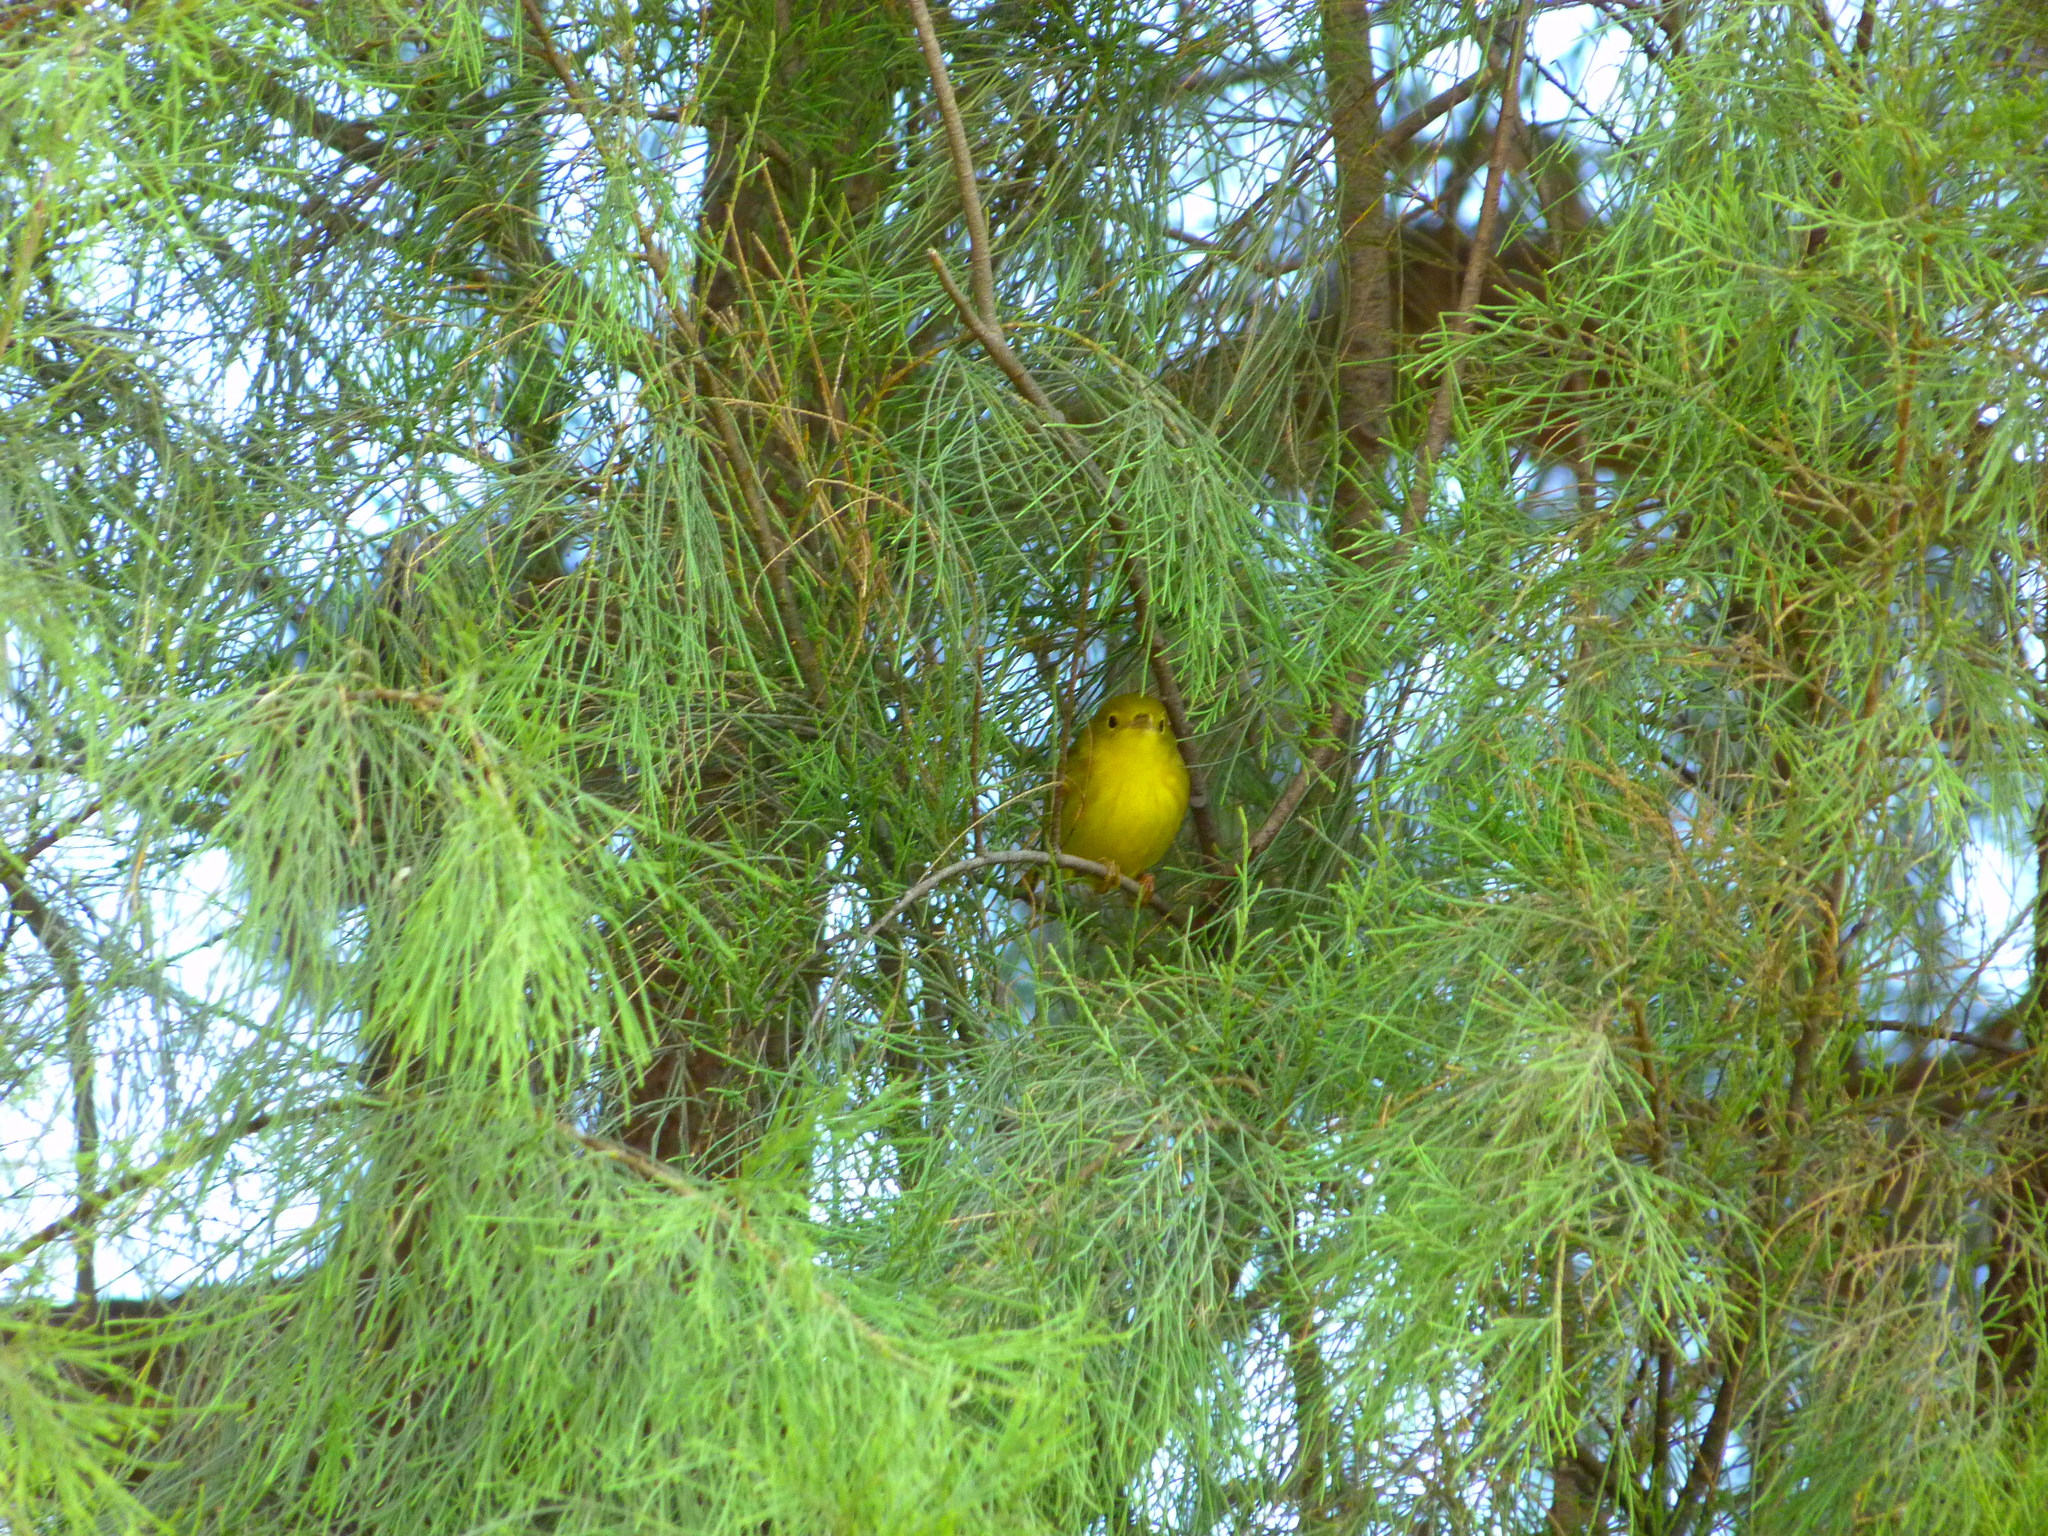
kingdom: Animalia
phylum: Chordata
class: Aves
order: Passeriformes
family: Parulidae
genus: Setophaga
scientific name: Setophaga petechia
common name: Yellow warbler
